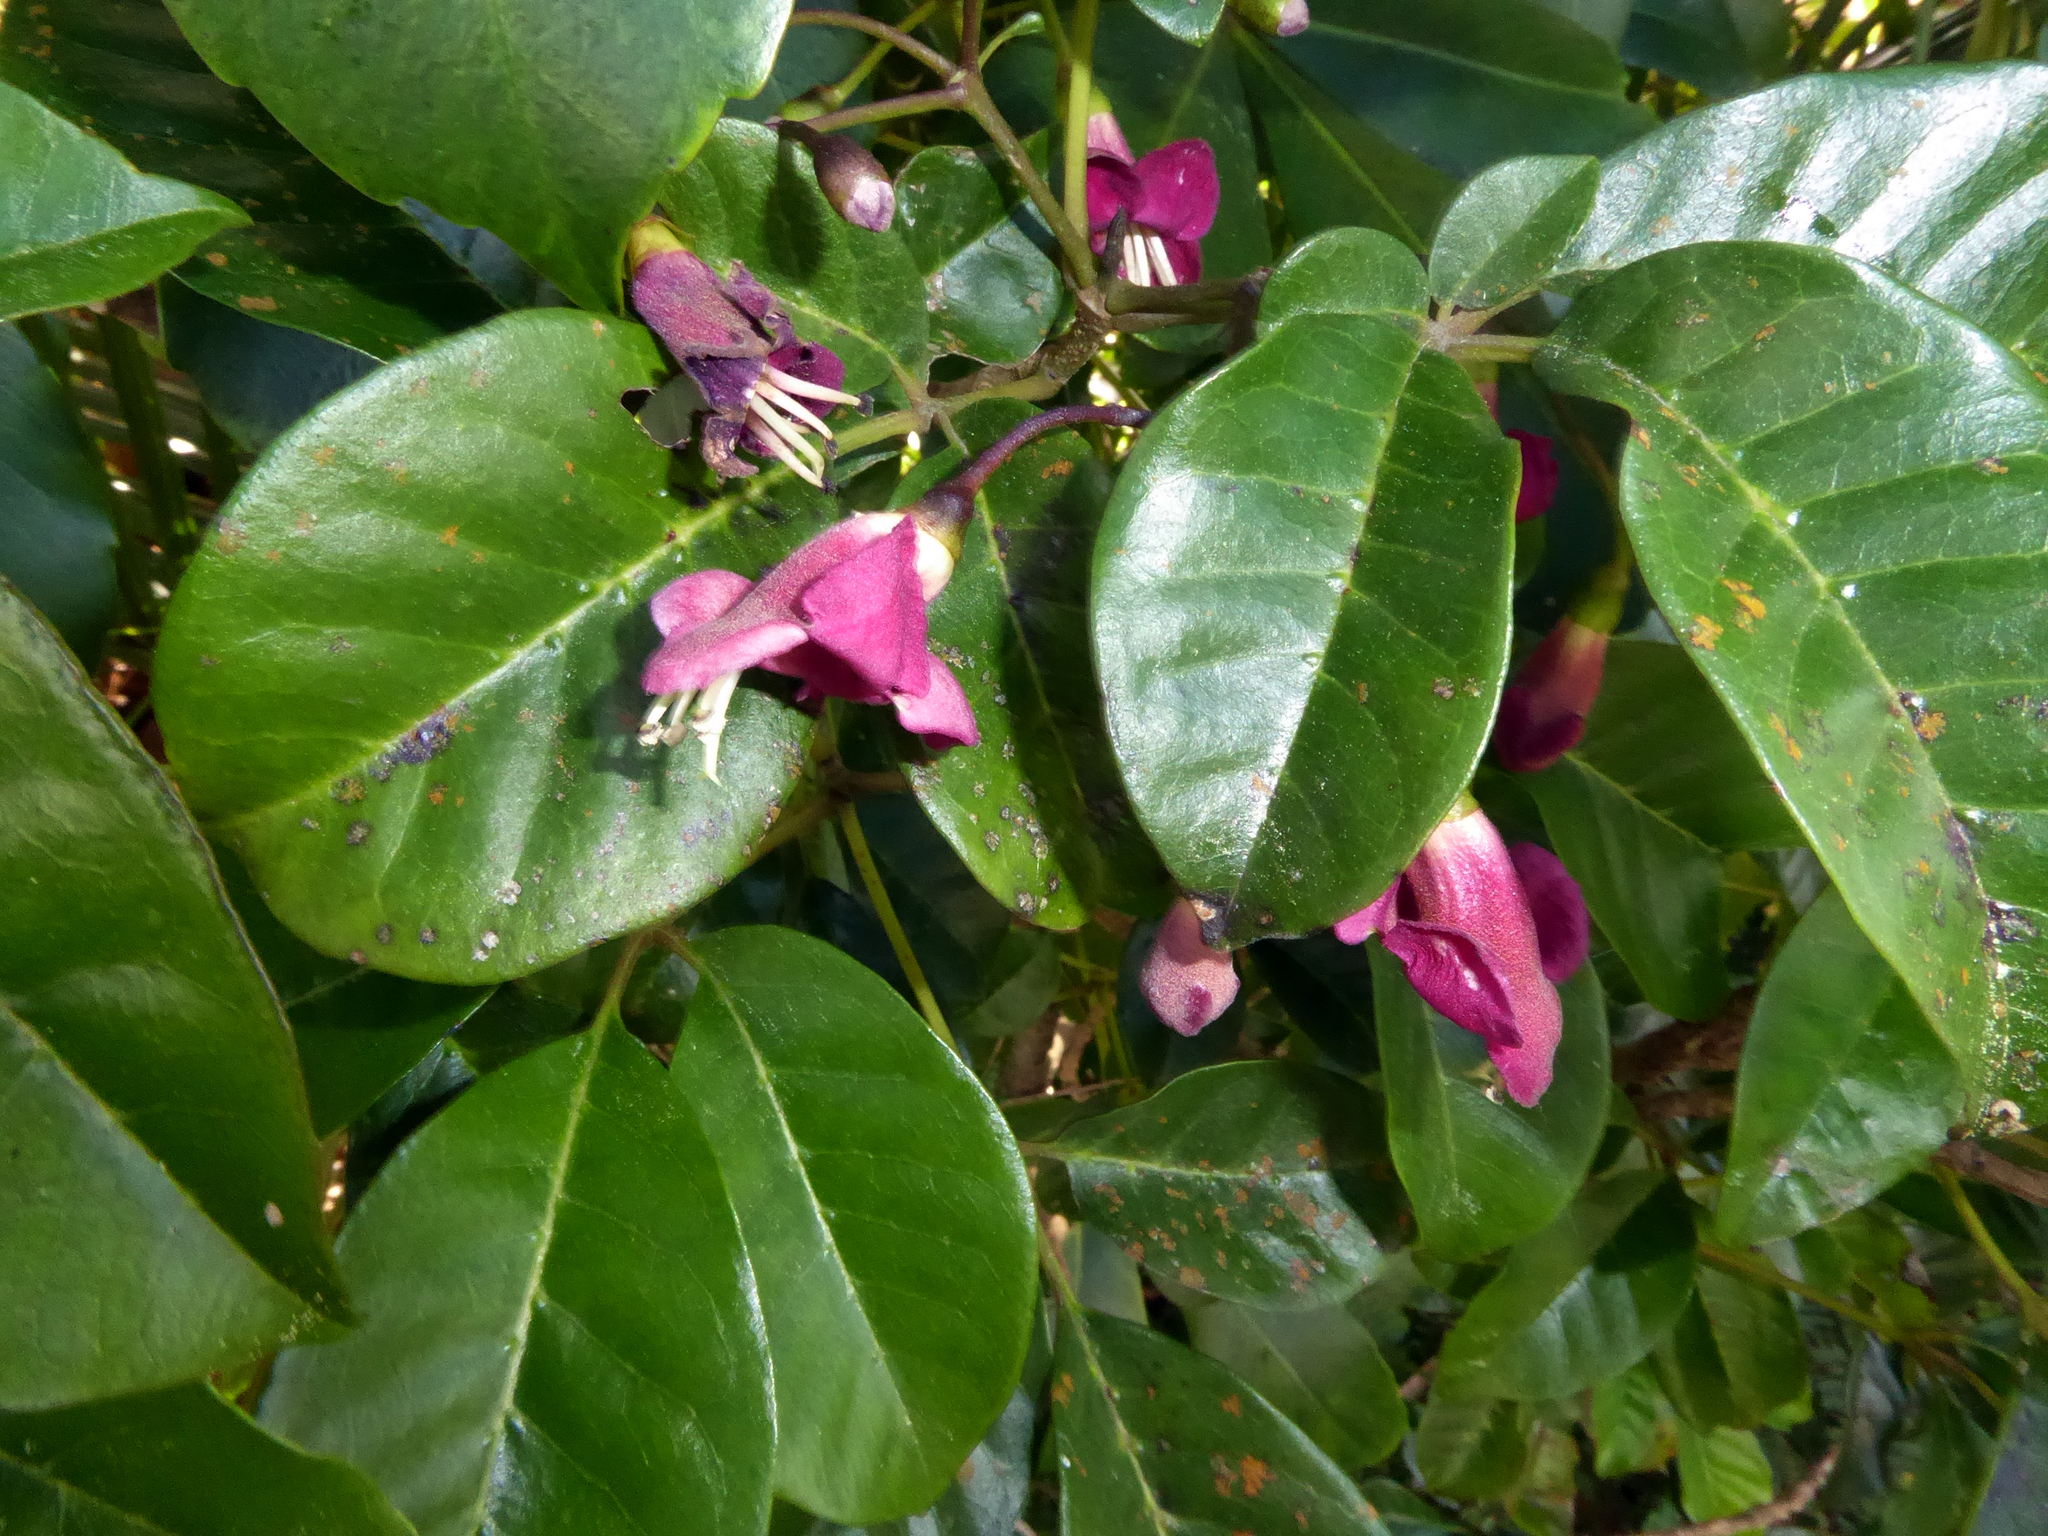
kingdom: Plantae
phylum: Tracheophyta
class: Magnoliopsida
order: Lamiales
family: Lamiaceae
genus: Vitex
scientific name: Vitex lucens
